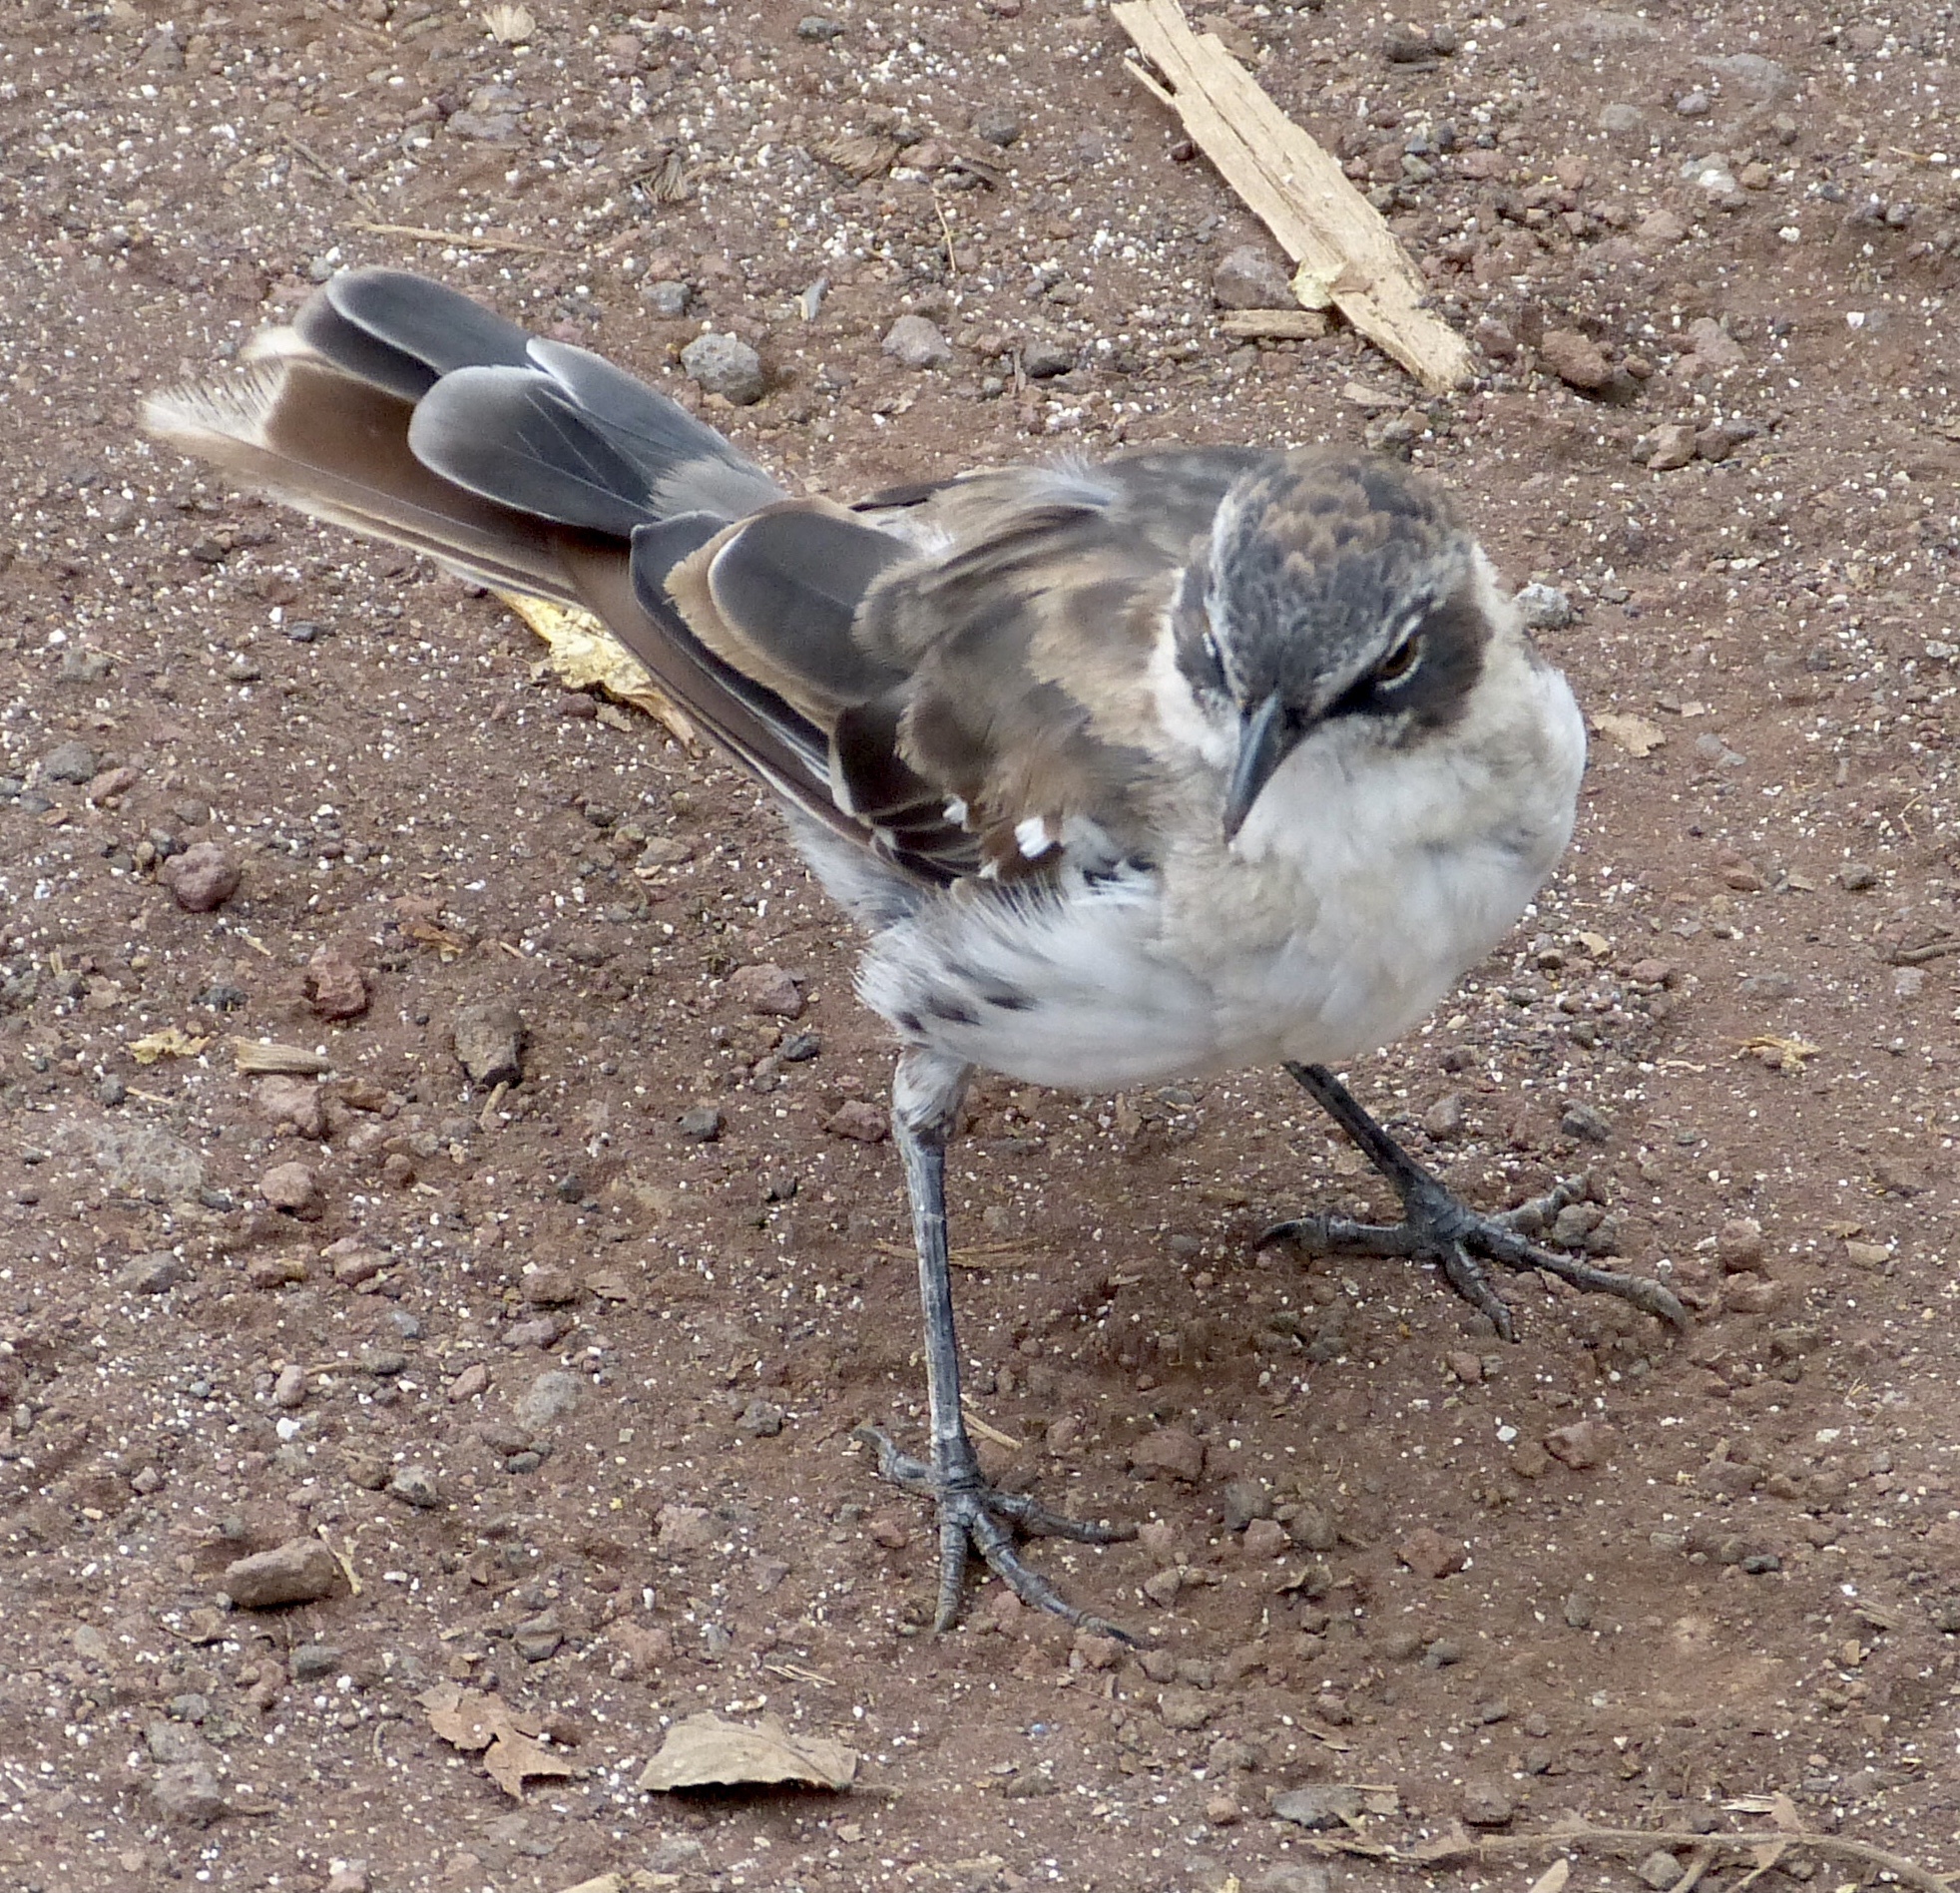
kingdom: Animalia
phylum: Chordata
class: Aves
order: Passeriformes
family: Mimidae
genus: Mimus
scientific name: Mimus parvulus
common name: Galapagos mockingbird
